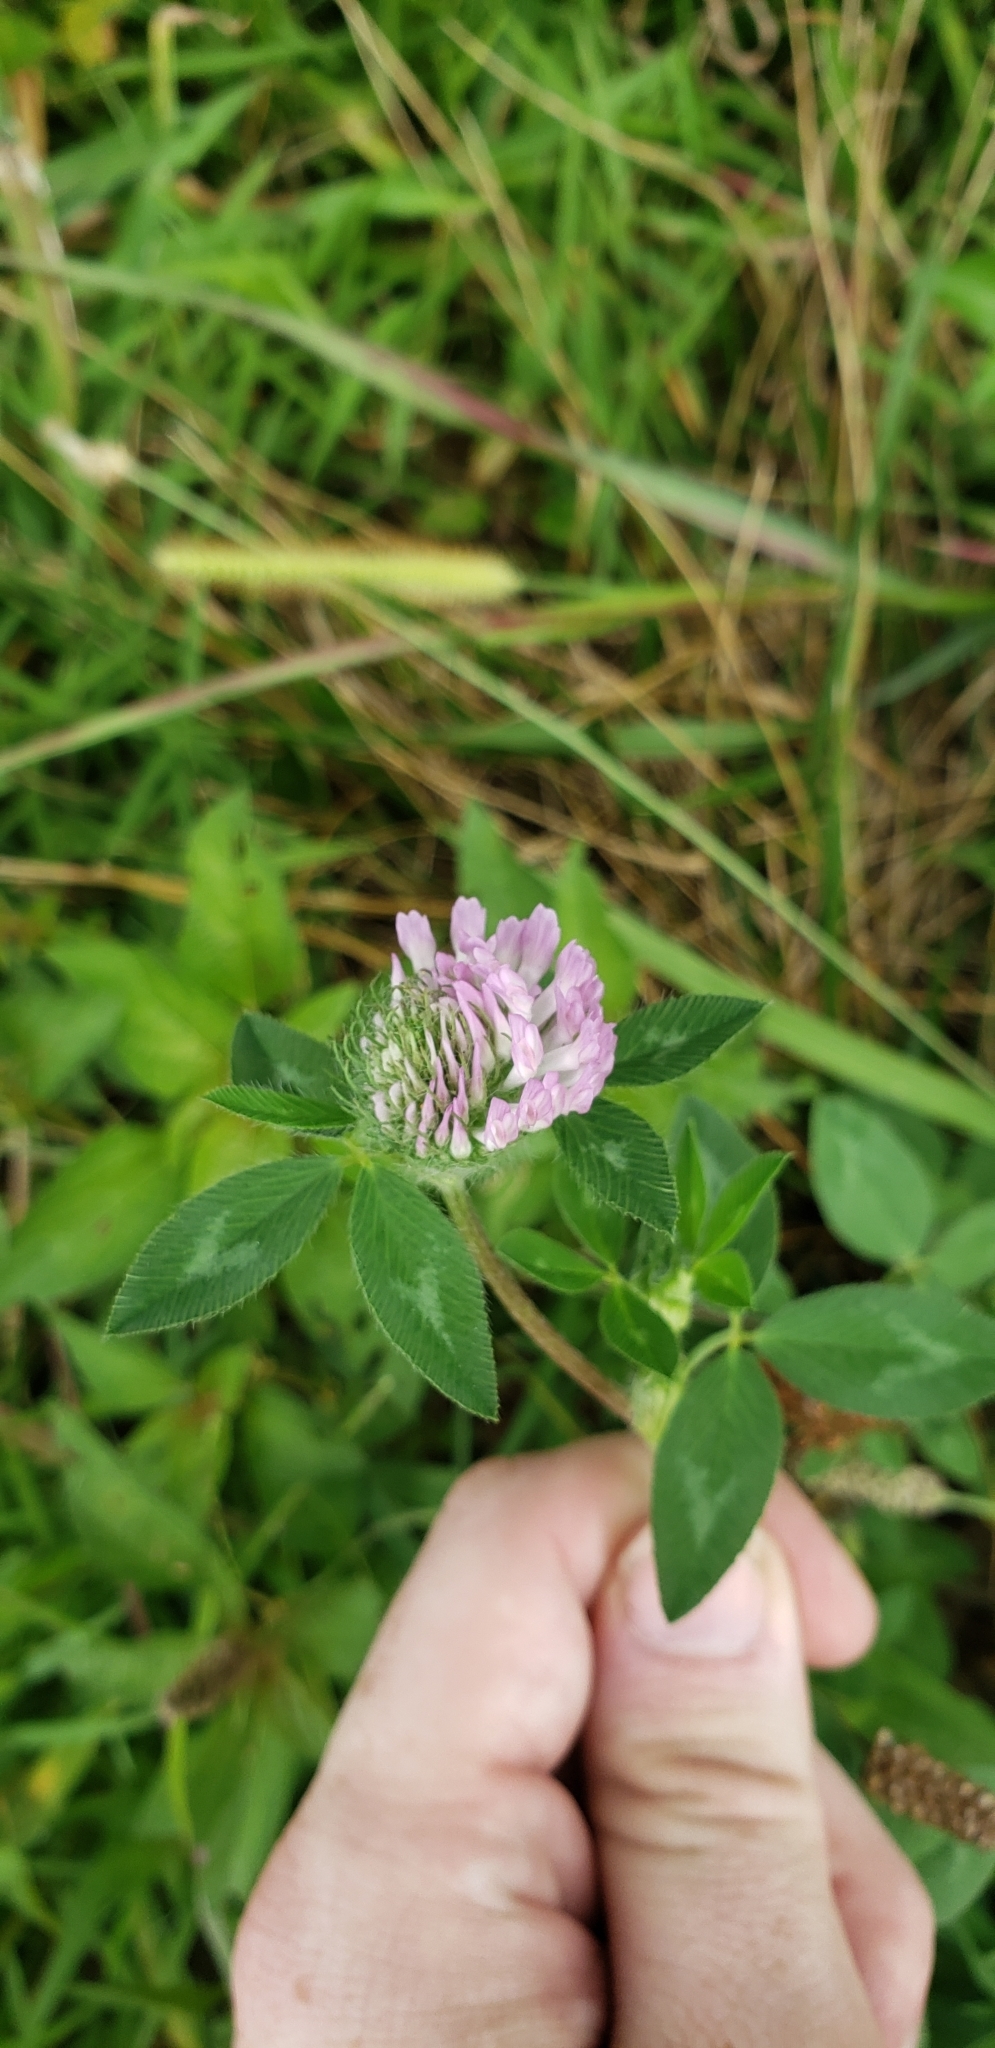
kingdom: Plantae
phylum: Tracheophyta
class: Magnoliopsida
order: Fabales
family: Fabaceae
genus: Trifolium
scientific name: Trifolium pratense
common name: Red clover
